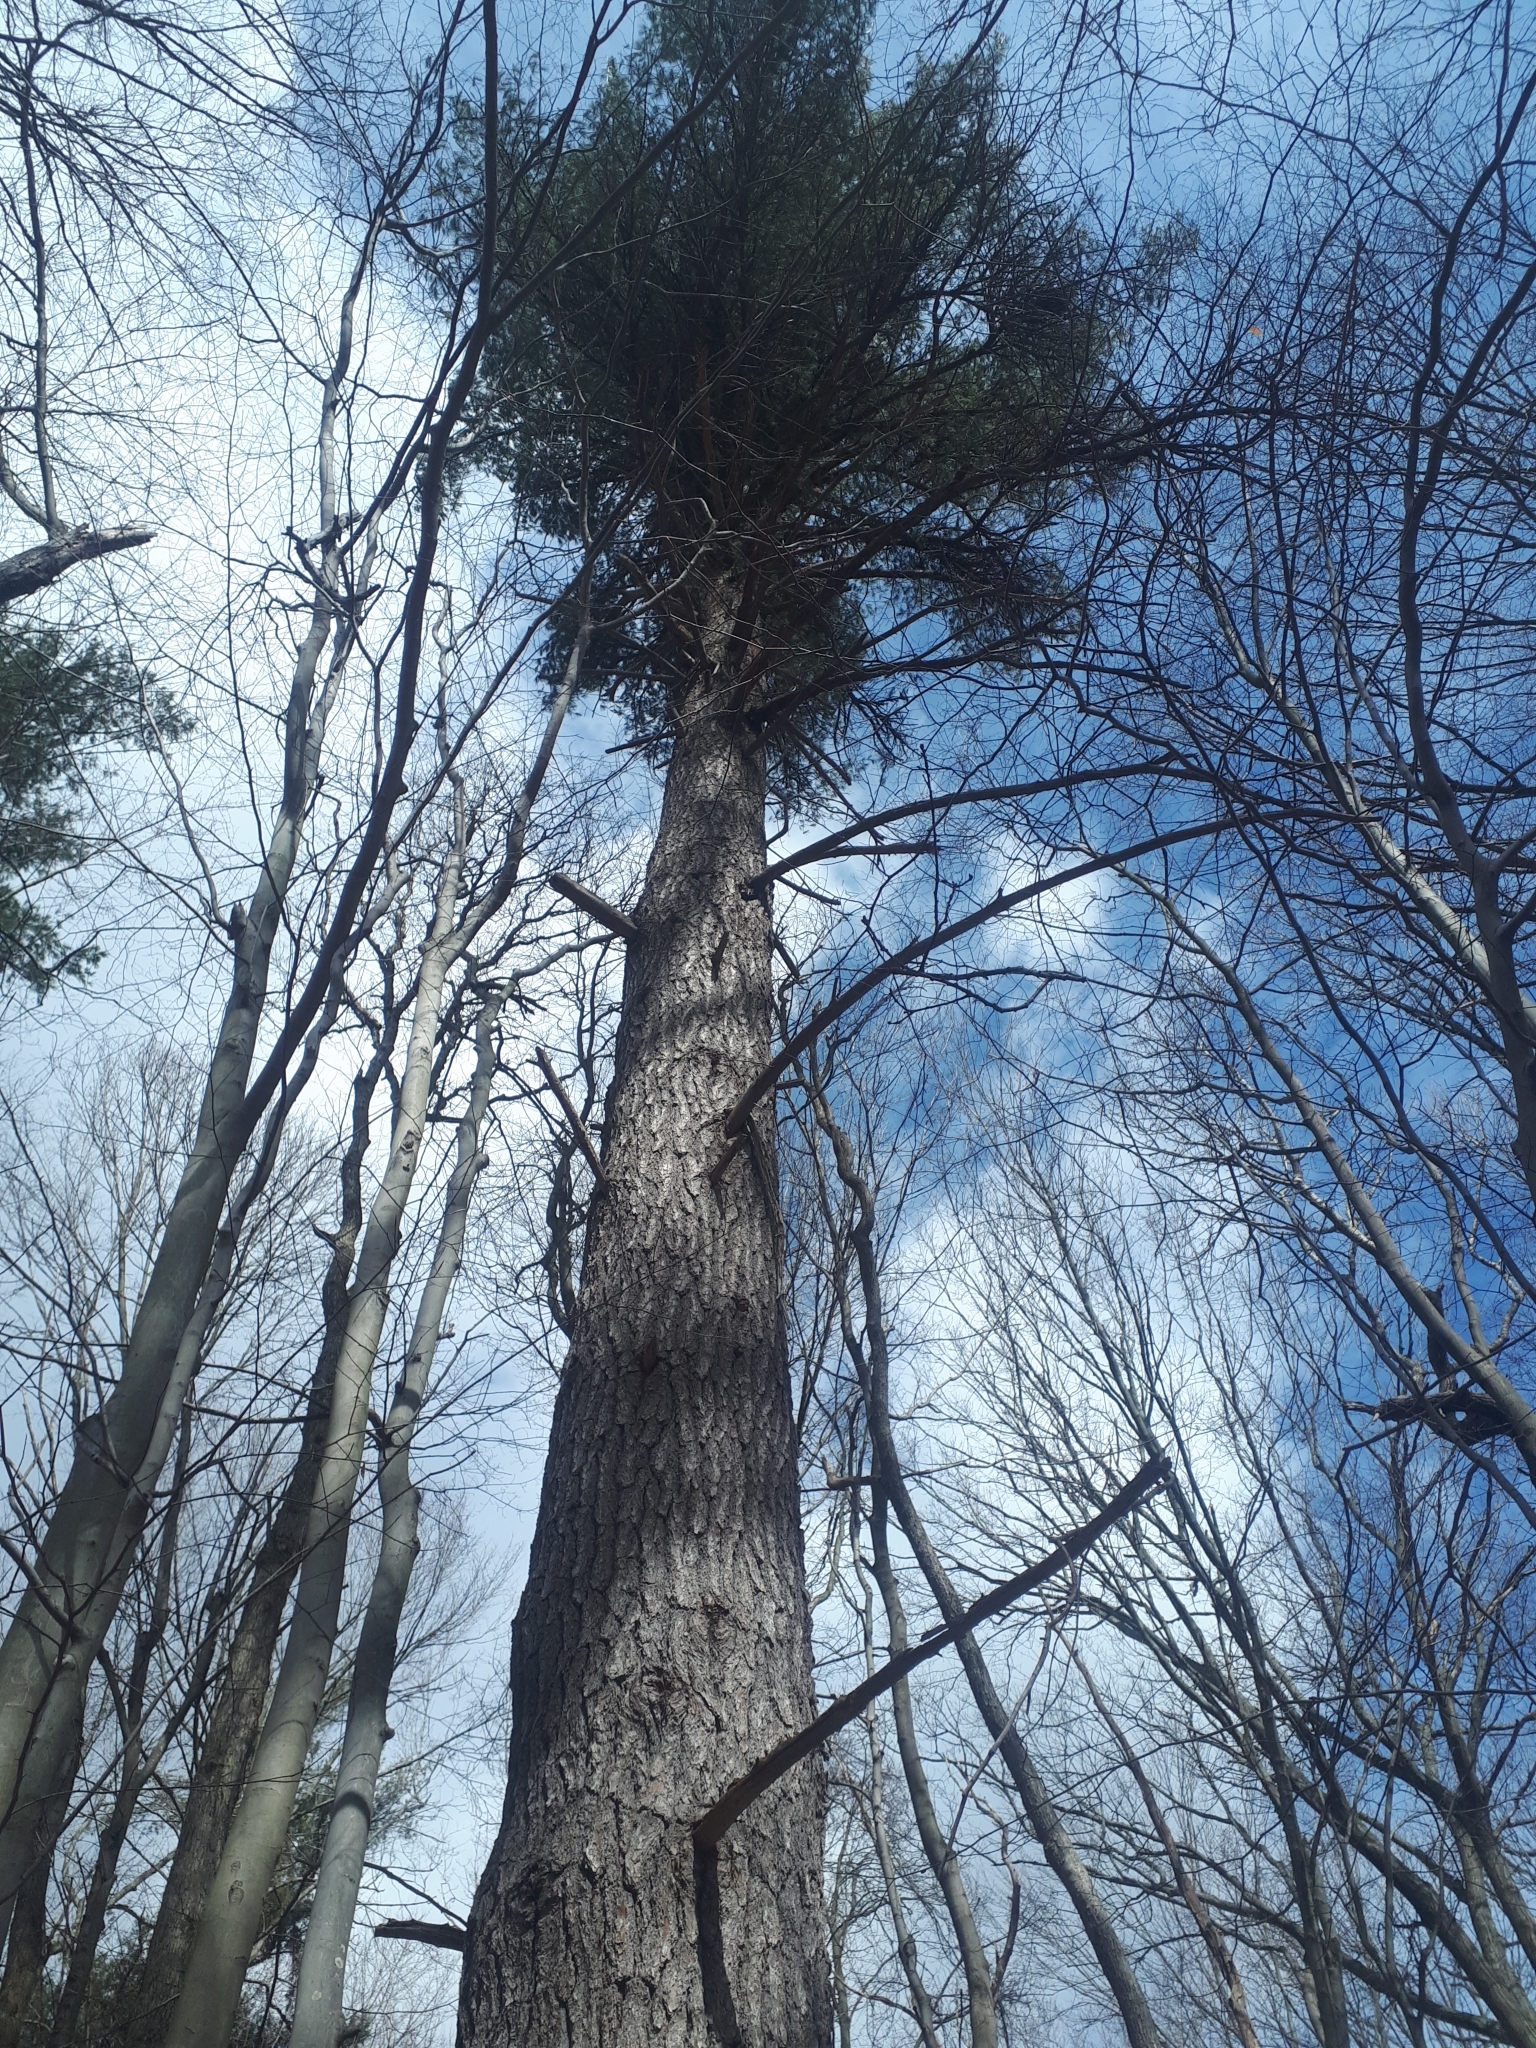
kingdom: Plantae
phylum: Tracheophyta
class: Pinopsida
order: Pinales
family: Pinaceae
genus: Pinus
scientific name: Pinus strobus
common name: Weymouth pine
